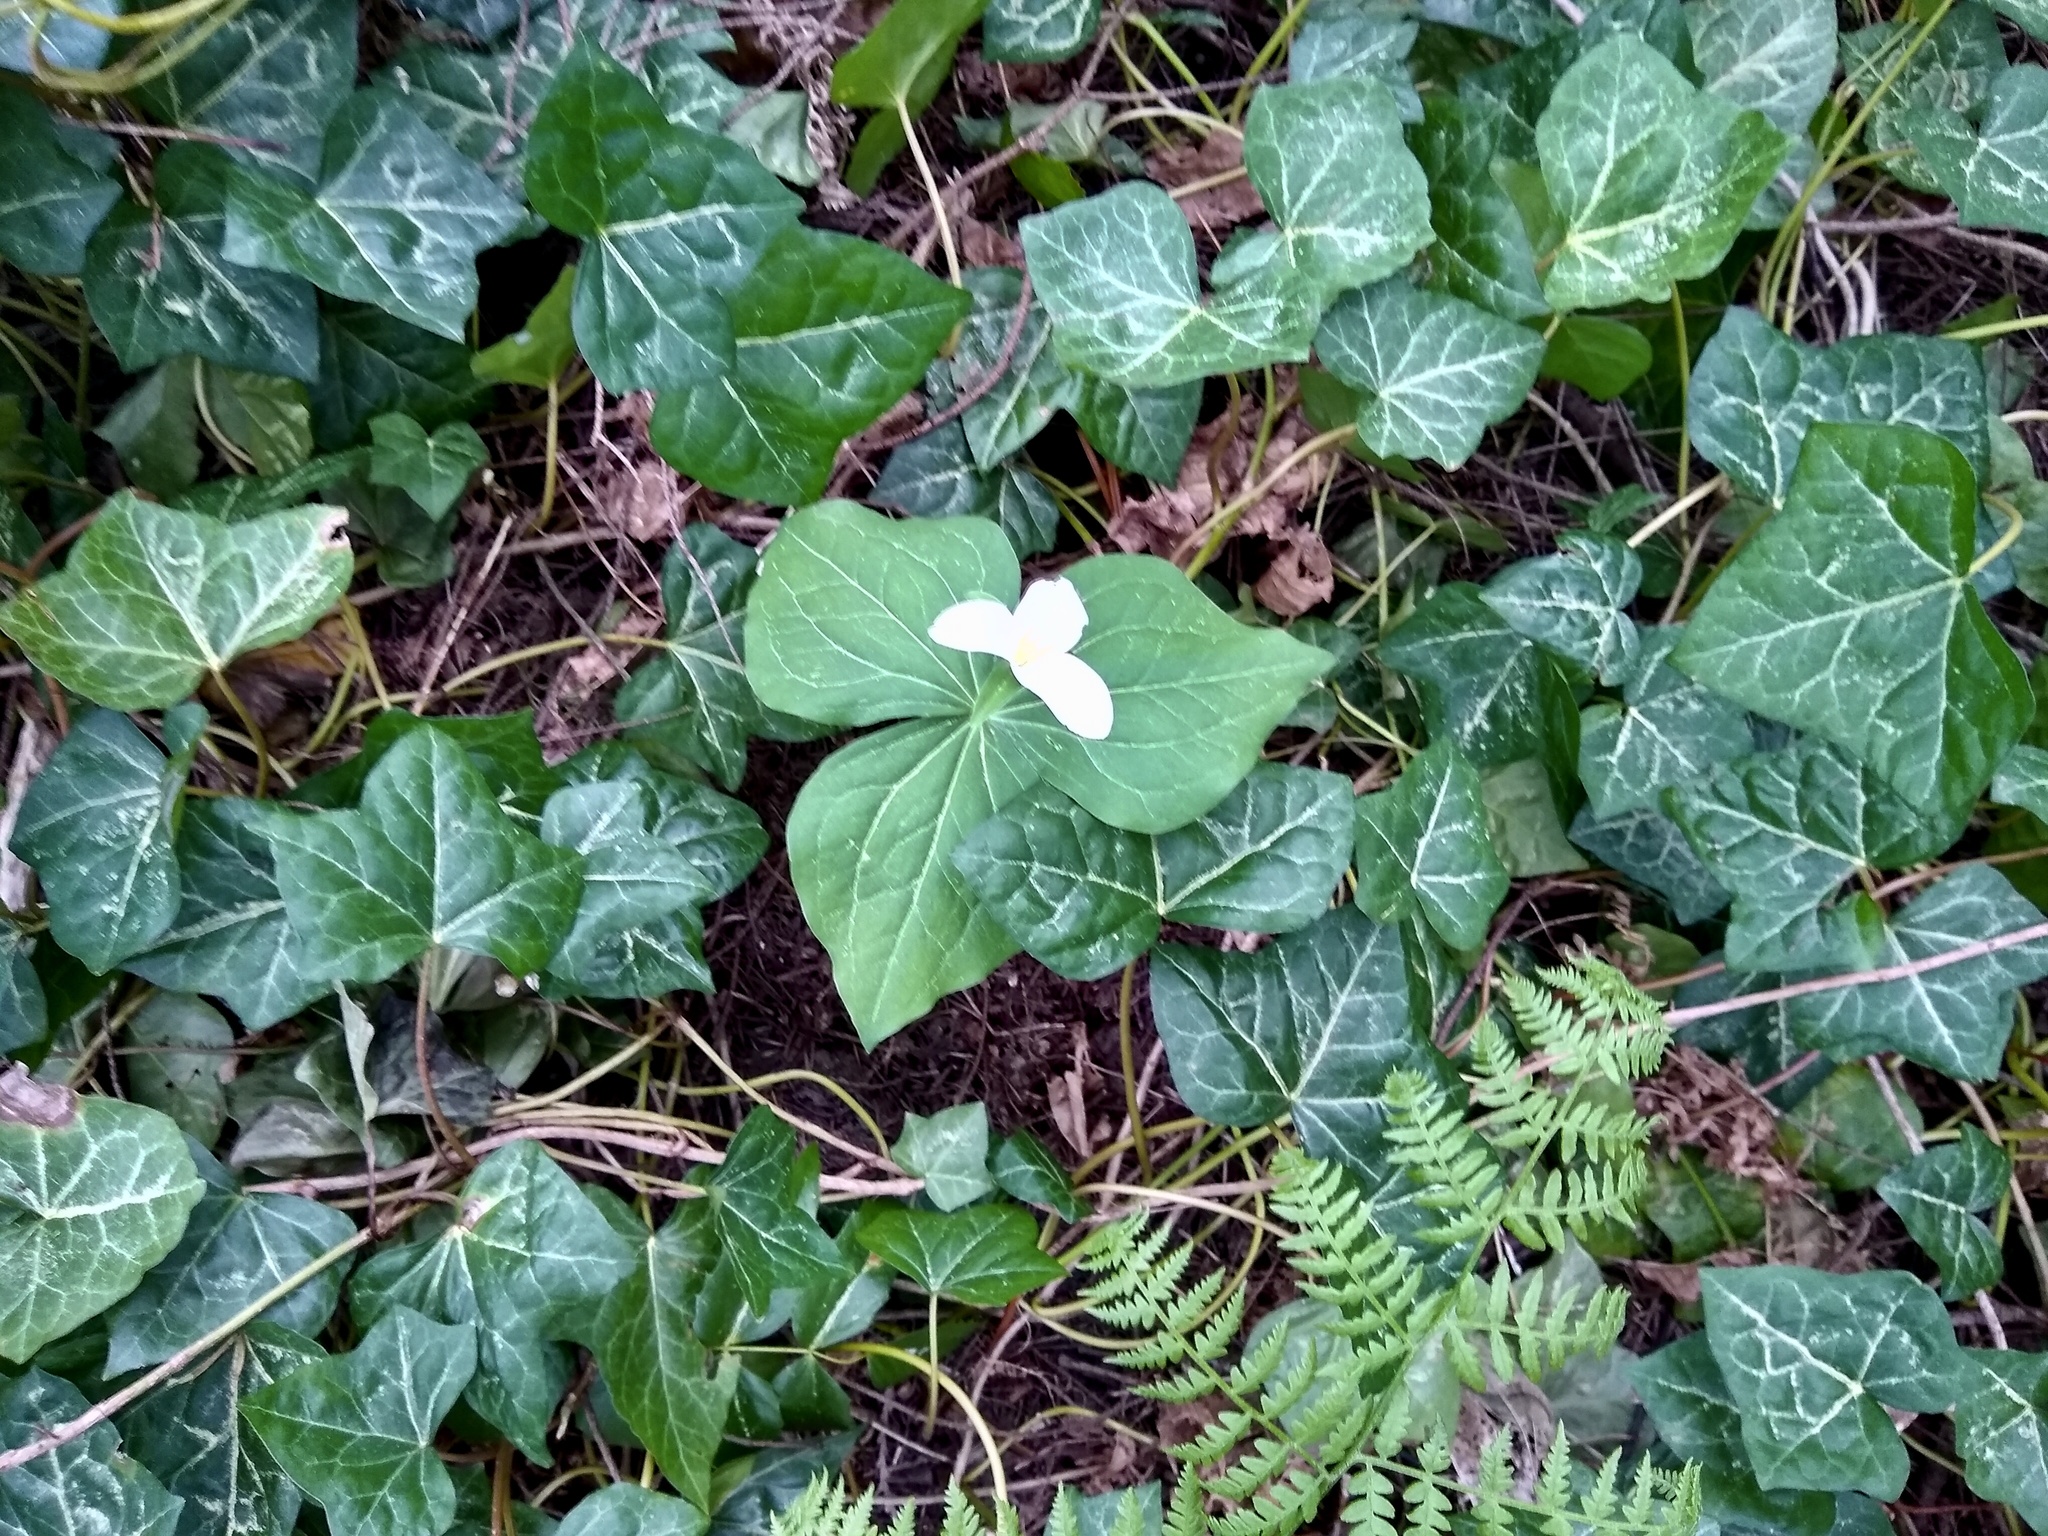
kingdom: Plantae
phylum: Tracheophyta
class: Liliopsida
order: Liliales
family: Melanthiaceae
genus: Trillium
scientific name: Trillium ovatum
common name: Pacific trillium
